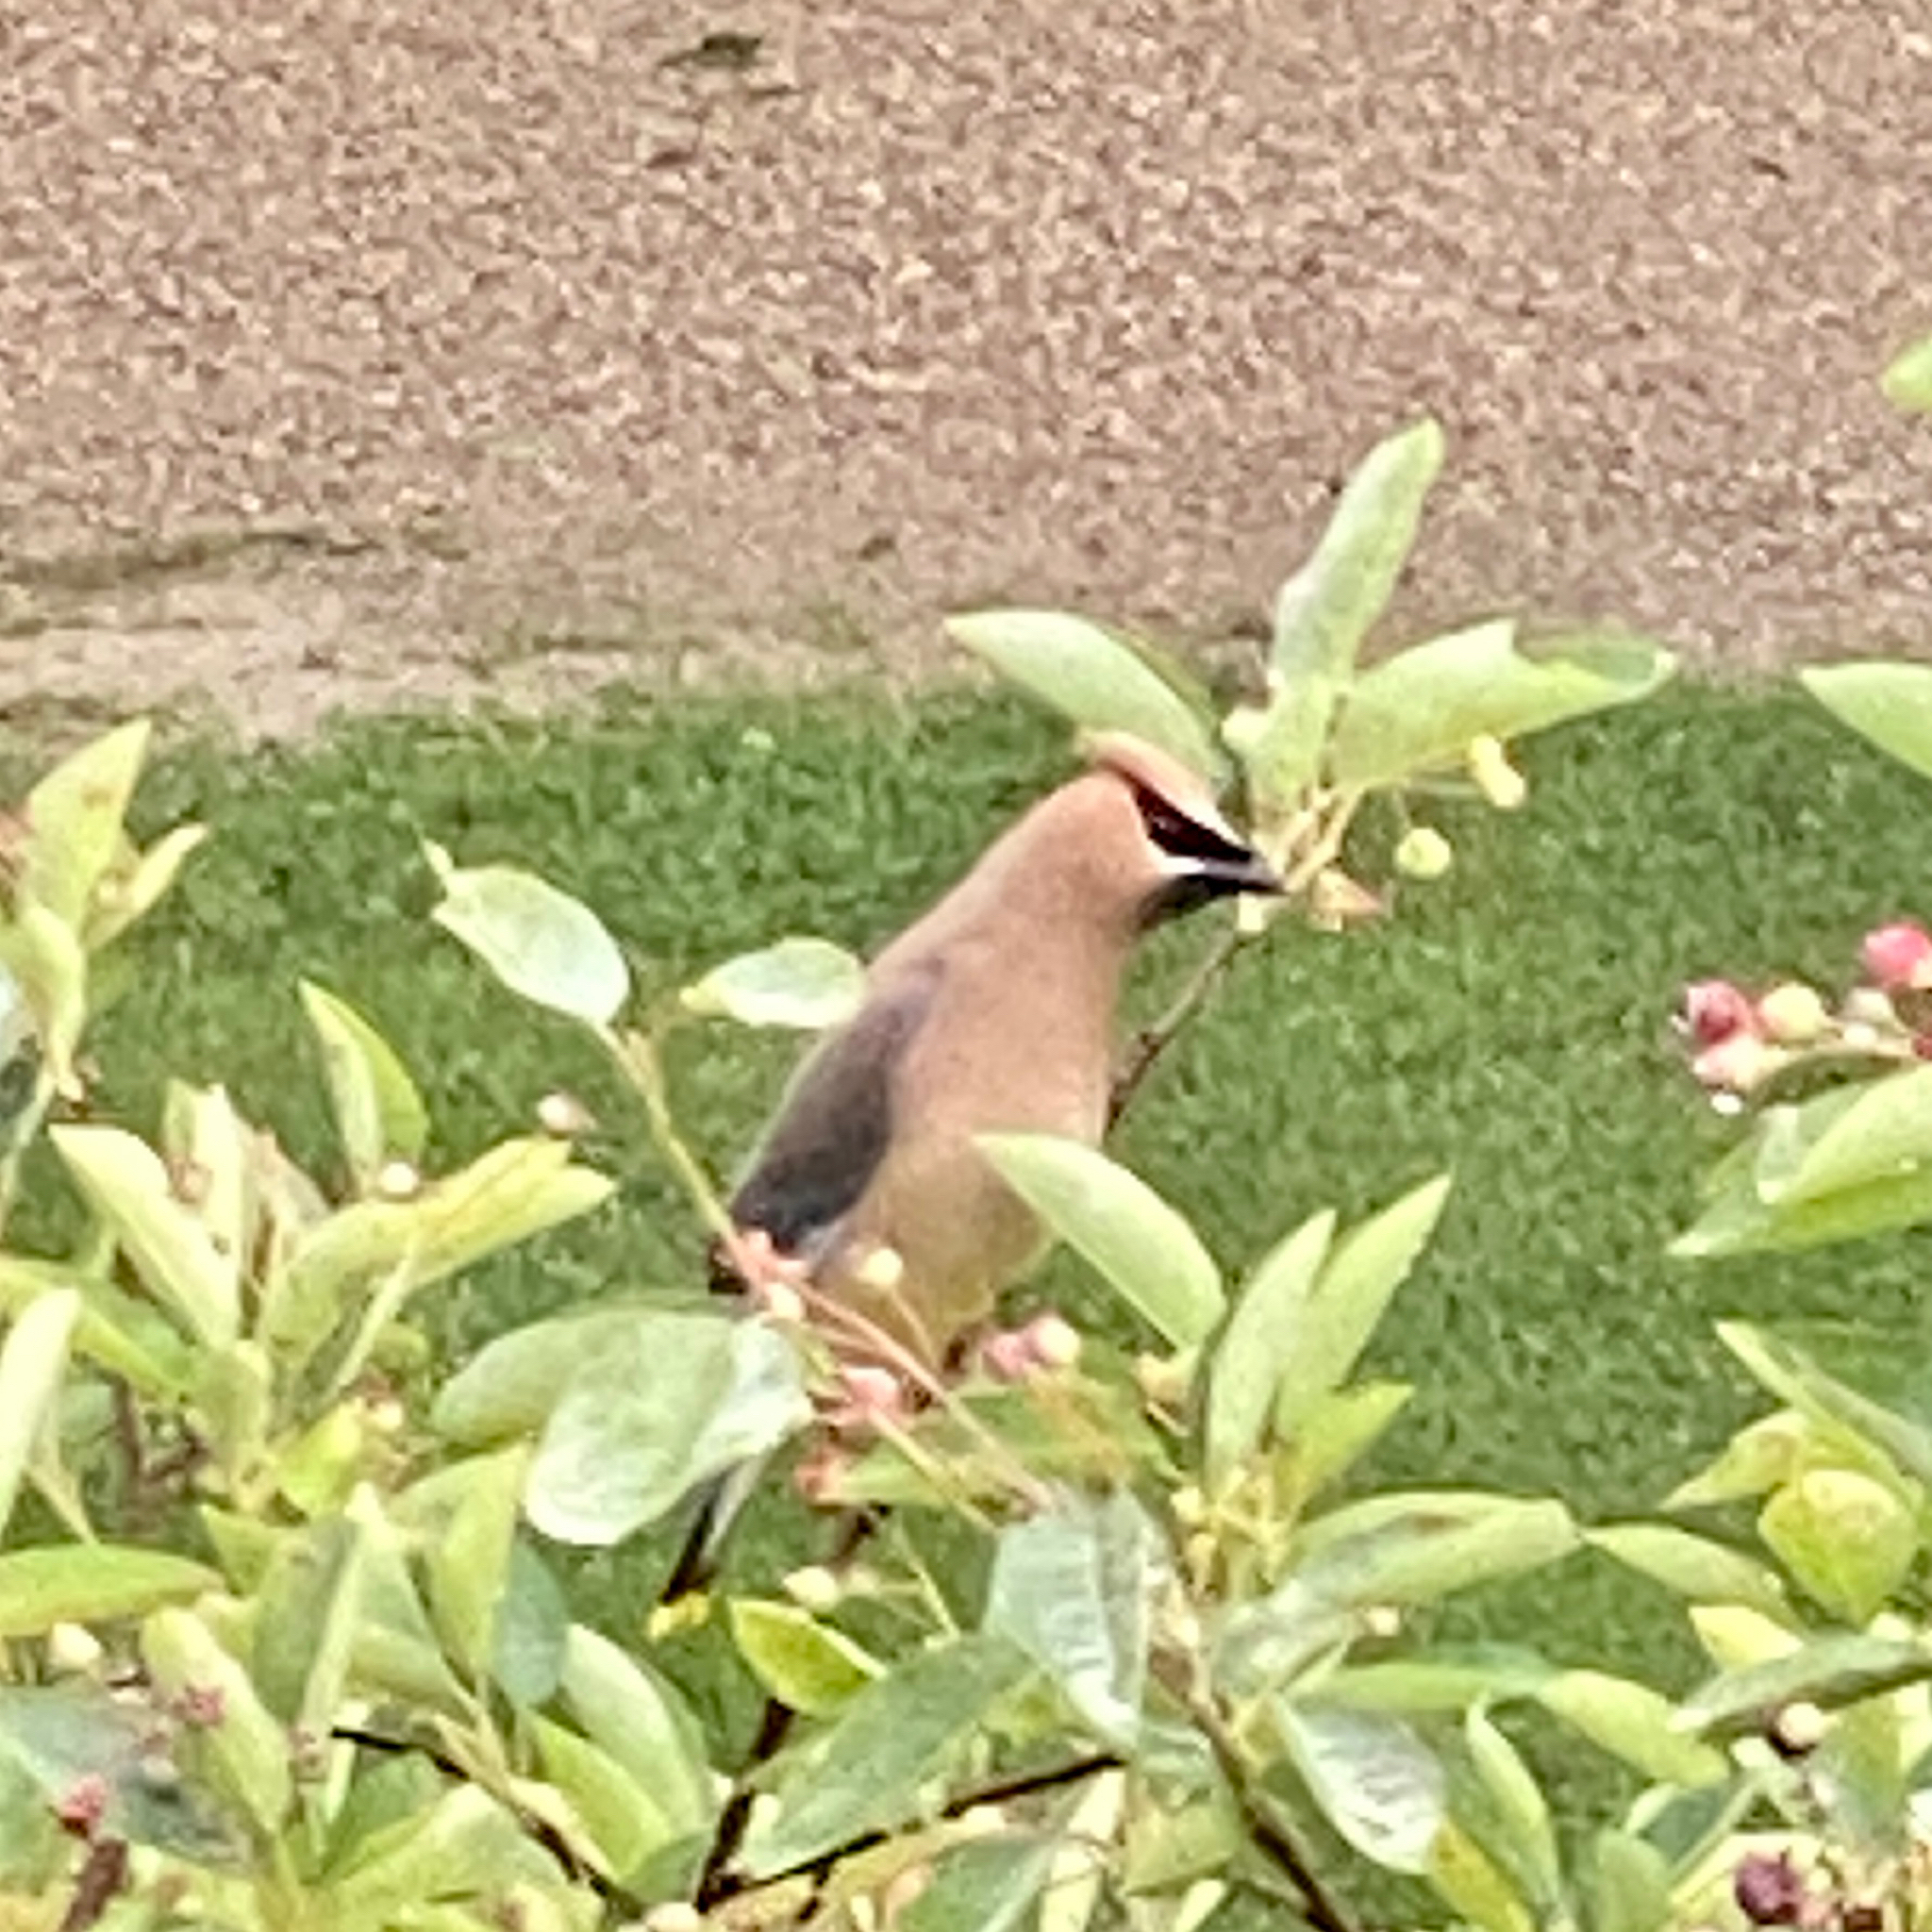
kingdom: Animalia
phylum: Chordata
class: Aves
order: Passeriformes
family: Bombycillidae
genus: Bombycilla
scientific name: Bombycilla cedrorum
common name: Cedar waxwing
